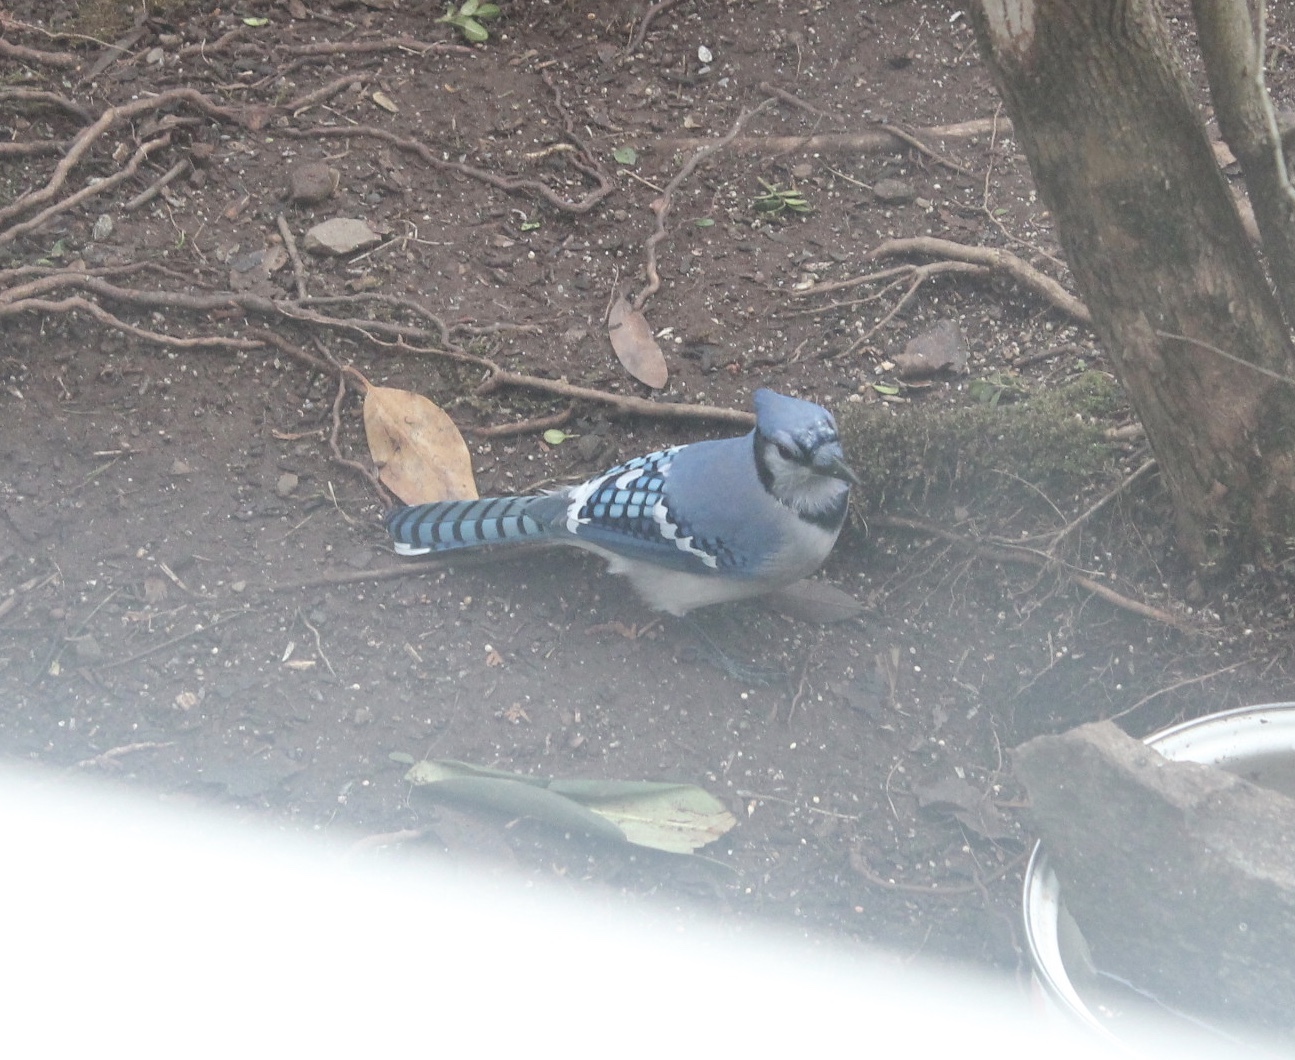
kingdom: Animalia
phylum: Chordata
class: Aves
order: Passeriformes
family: Corvidae
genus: Cyanocitta
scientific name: Cyanocitta cristata
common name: Blue jay
